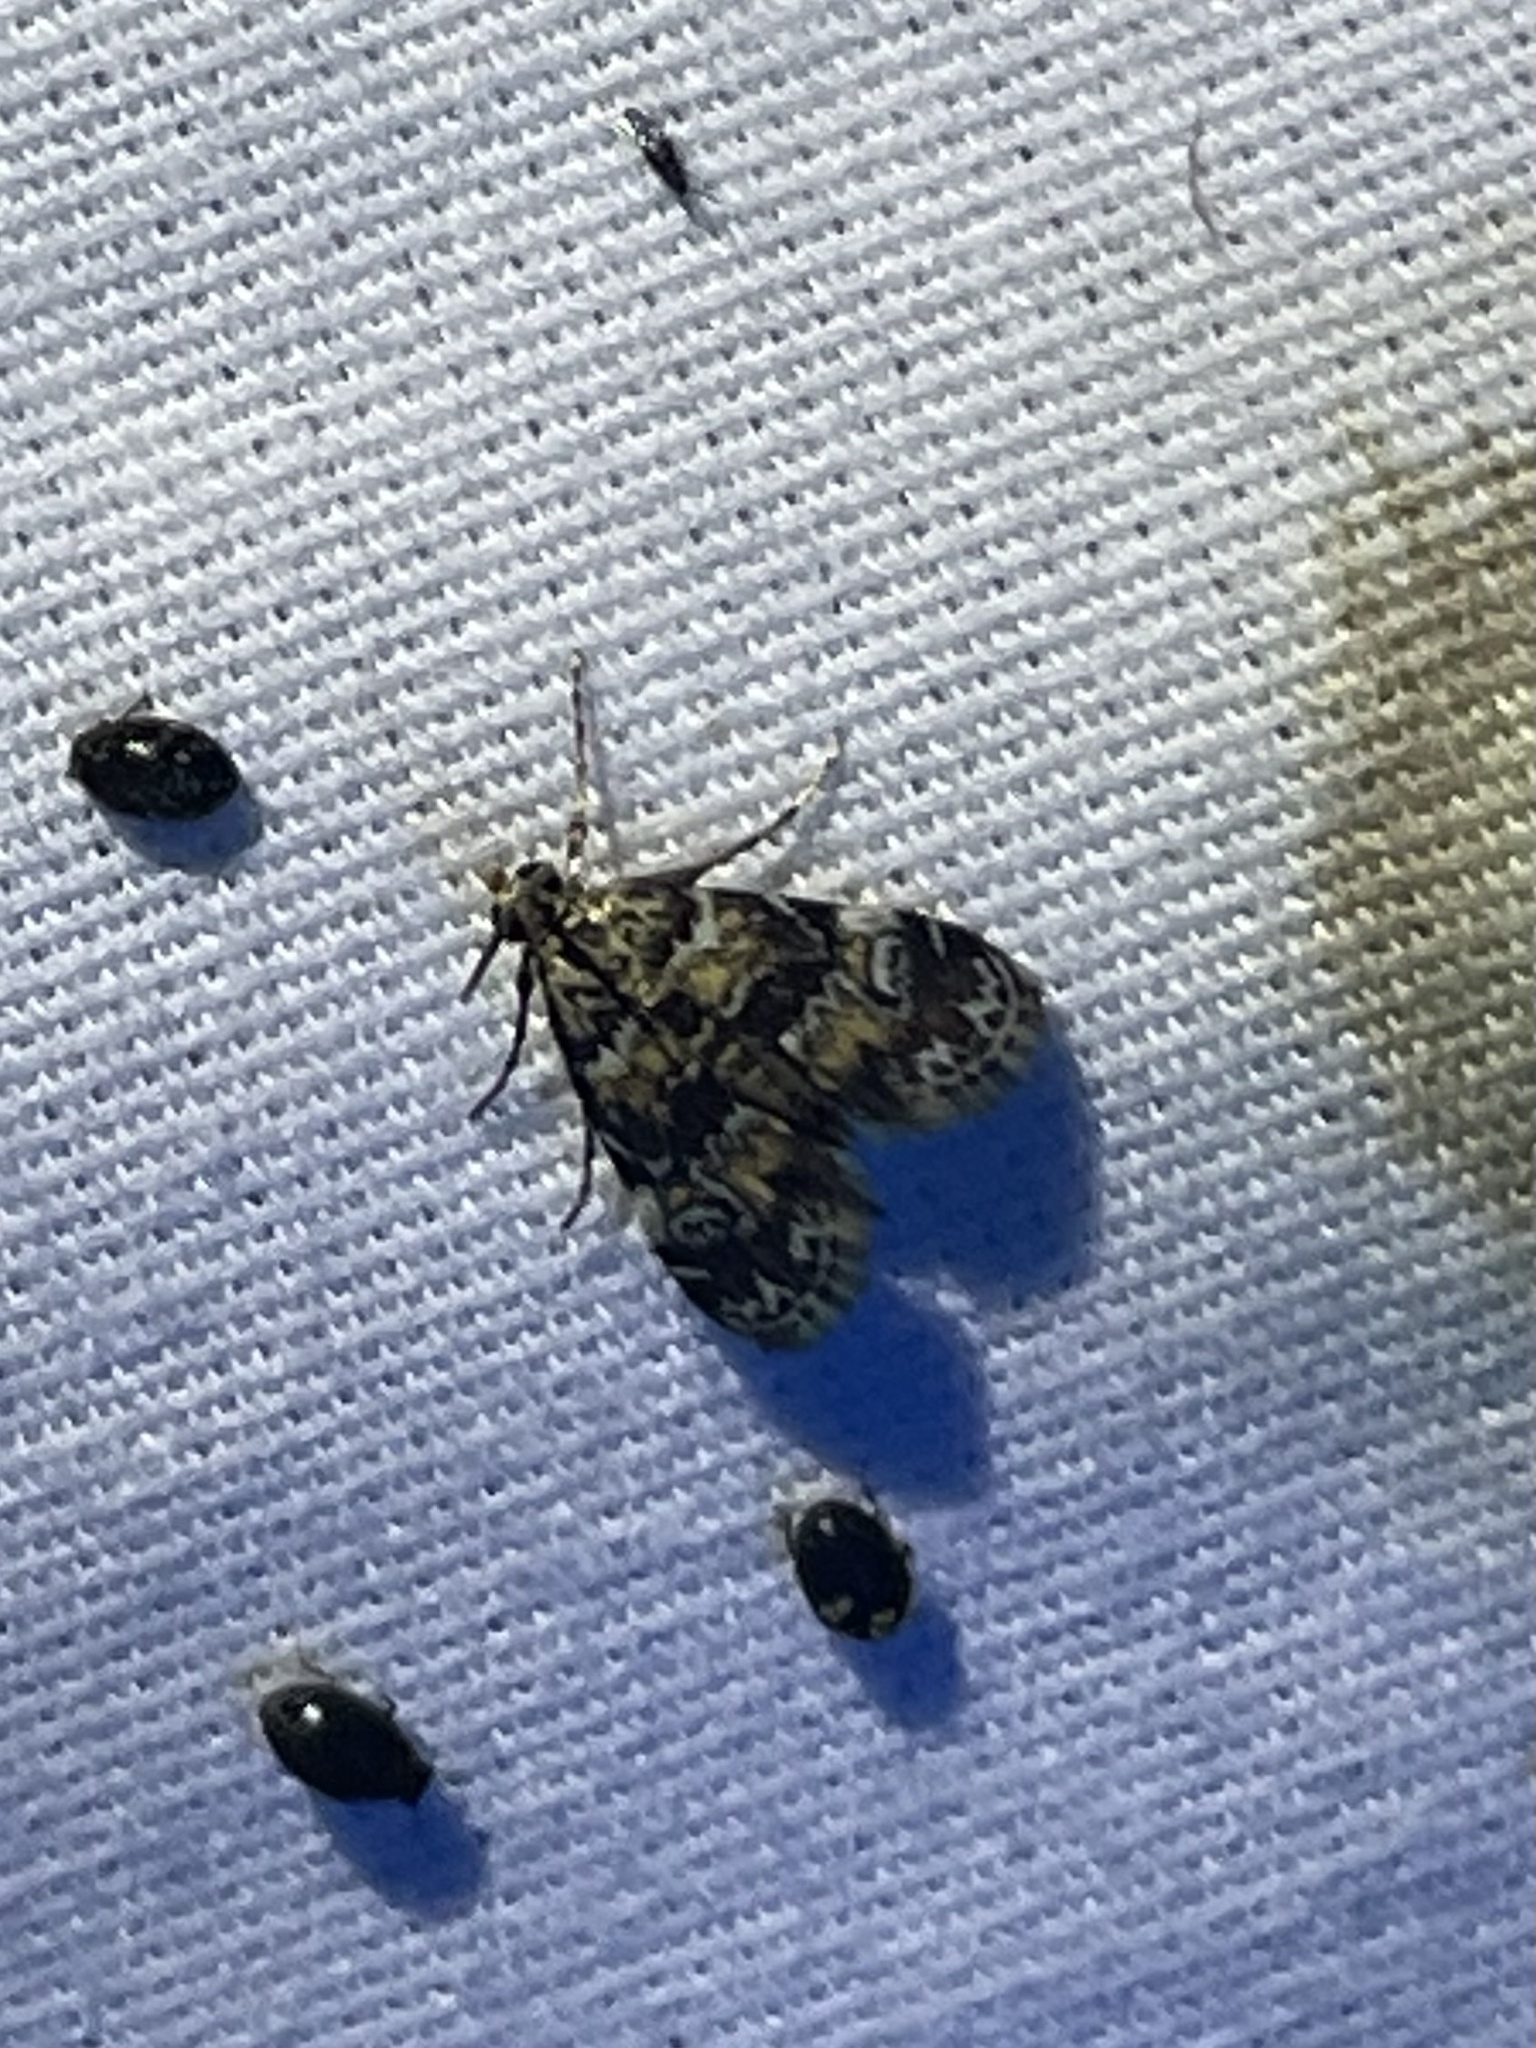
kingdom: Animalia
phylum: Arthropoda
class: Insecta
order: Lepidoptera
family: Crambidae
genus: Elophila
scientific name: Elophila obliteralis
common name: Waterlily leafcutter moth
